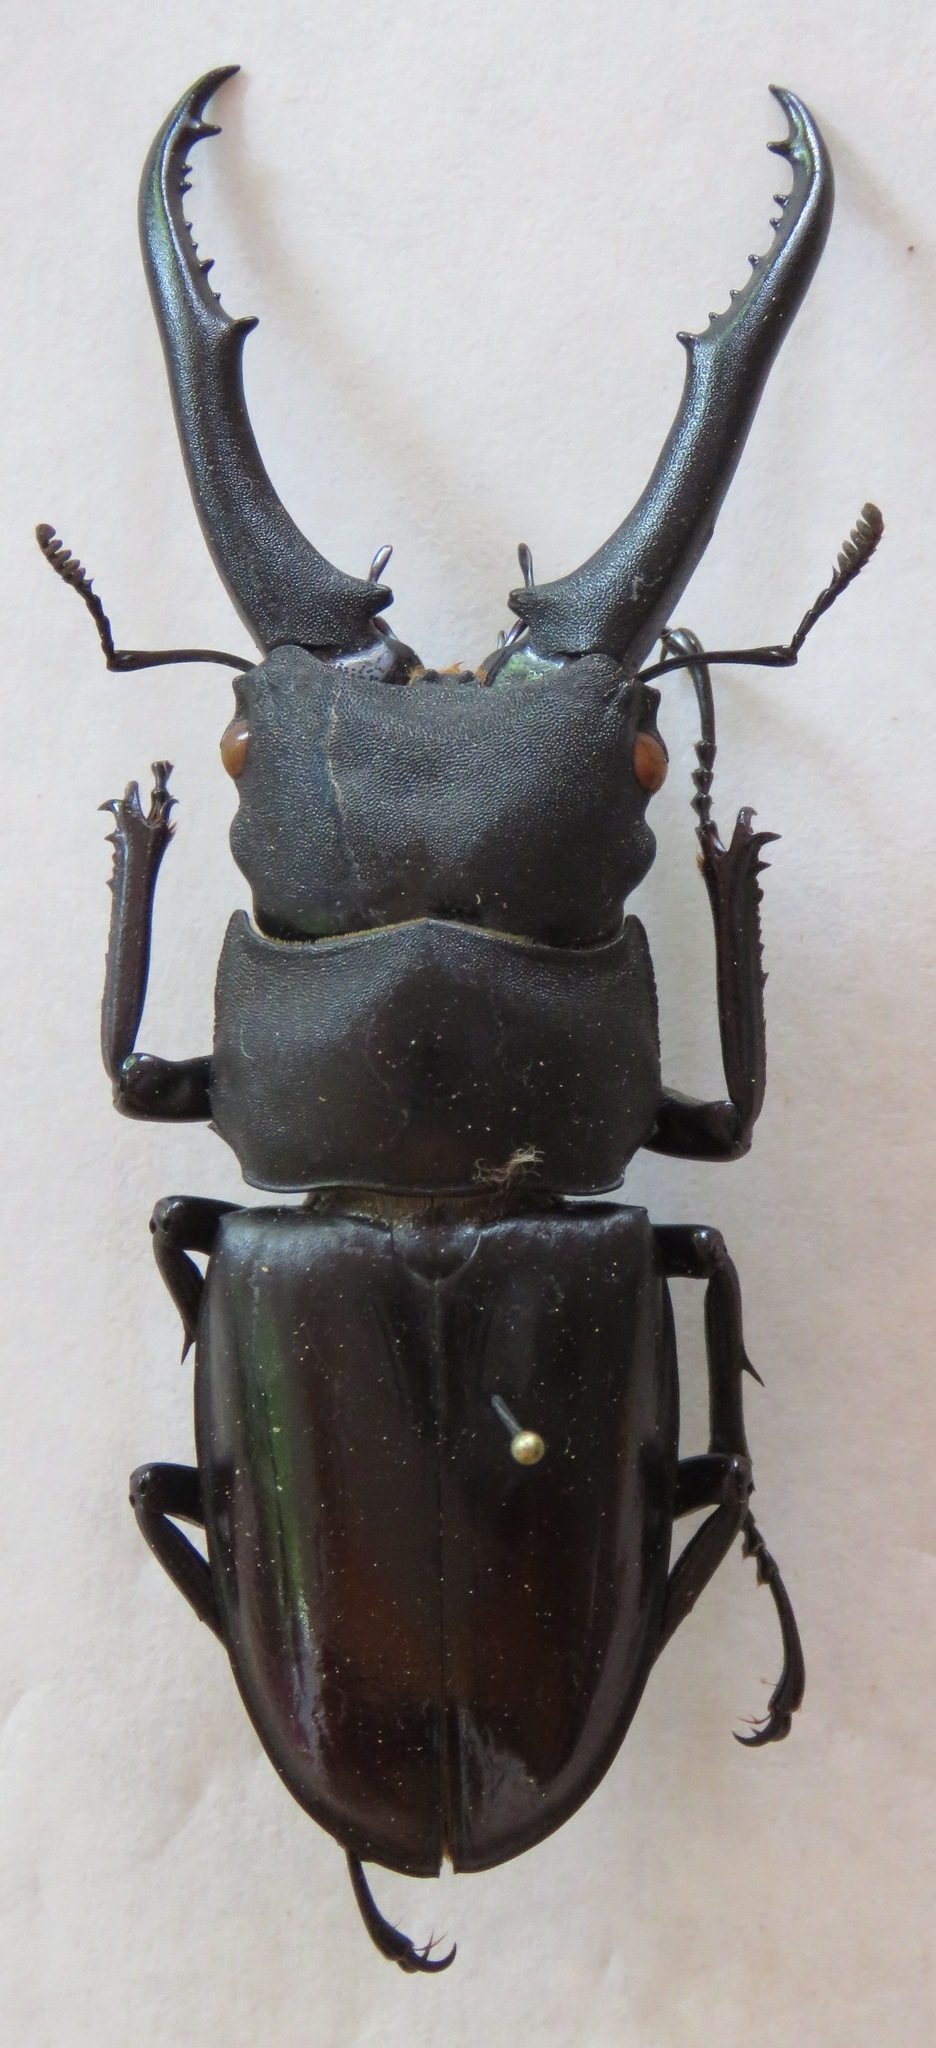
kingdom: Animalia
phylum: Arthropoda
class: Insecta
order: Coleoptera
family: Lucanidae
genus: Hexarthrius
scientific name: Hexarthrius vitalisi
